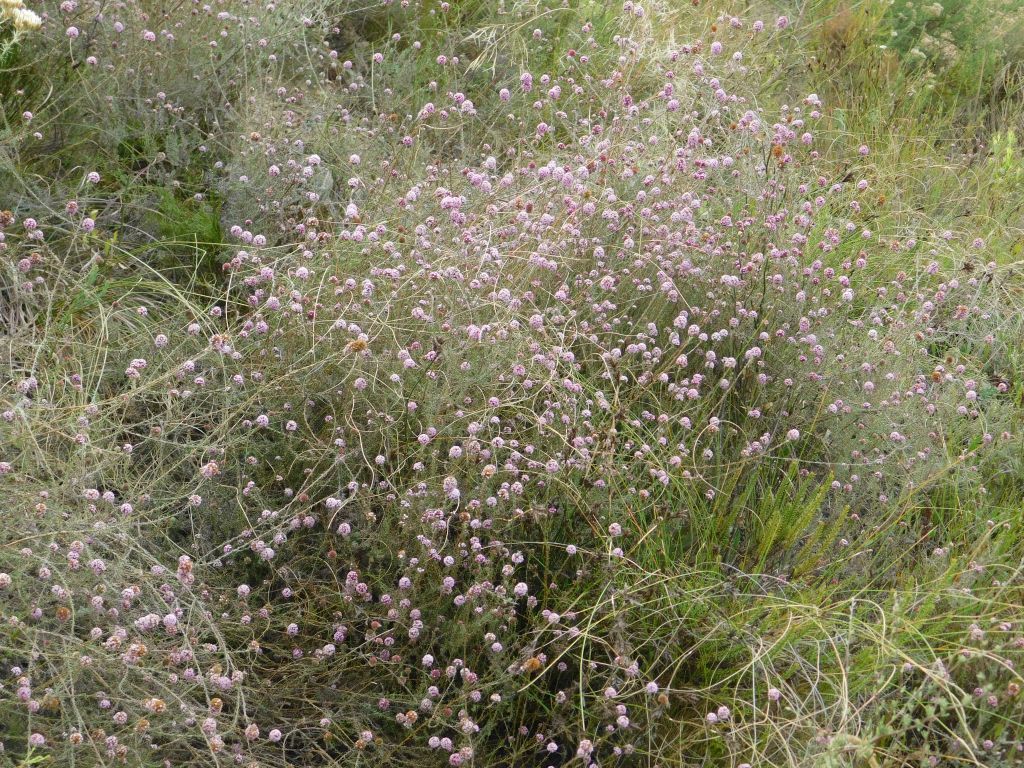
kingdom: Plantae
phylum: Tracheophyta
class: Magnoliopsida
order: Asterales
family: Asteraceae
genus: Stoebe
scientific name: Stoebe capitata
